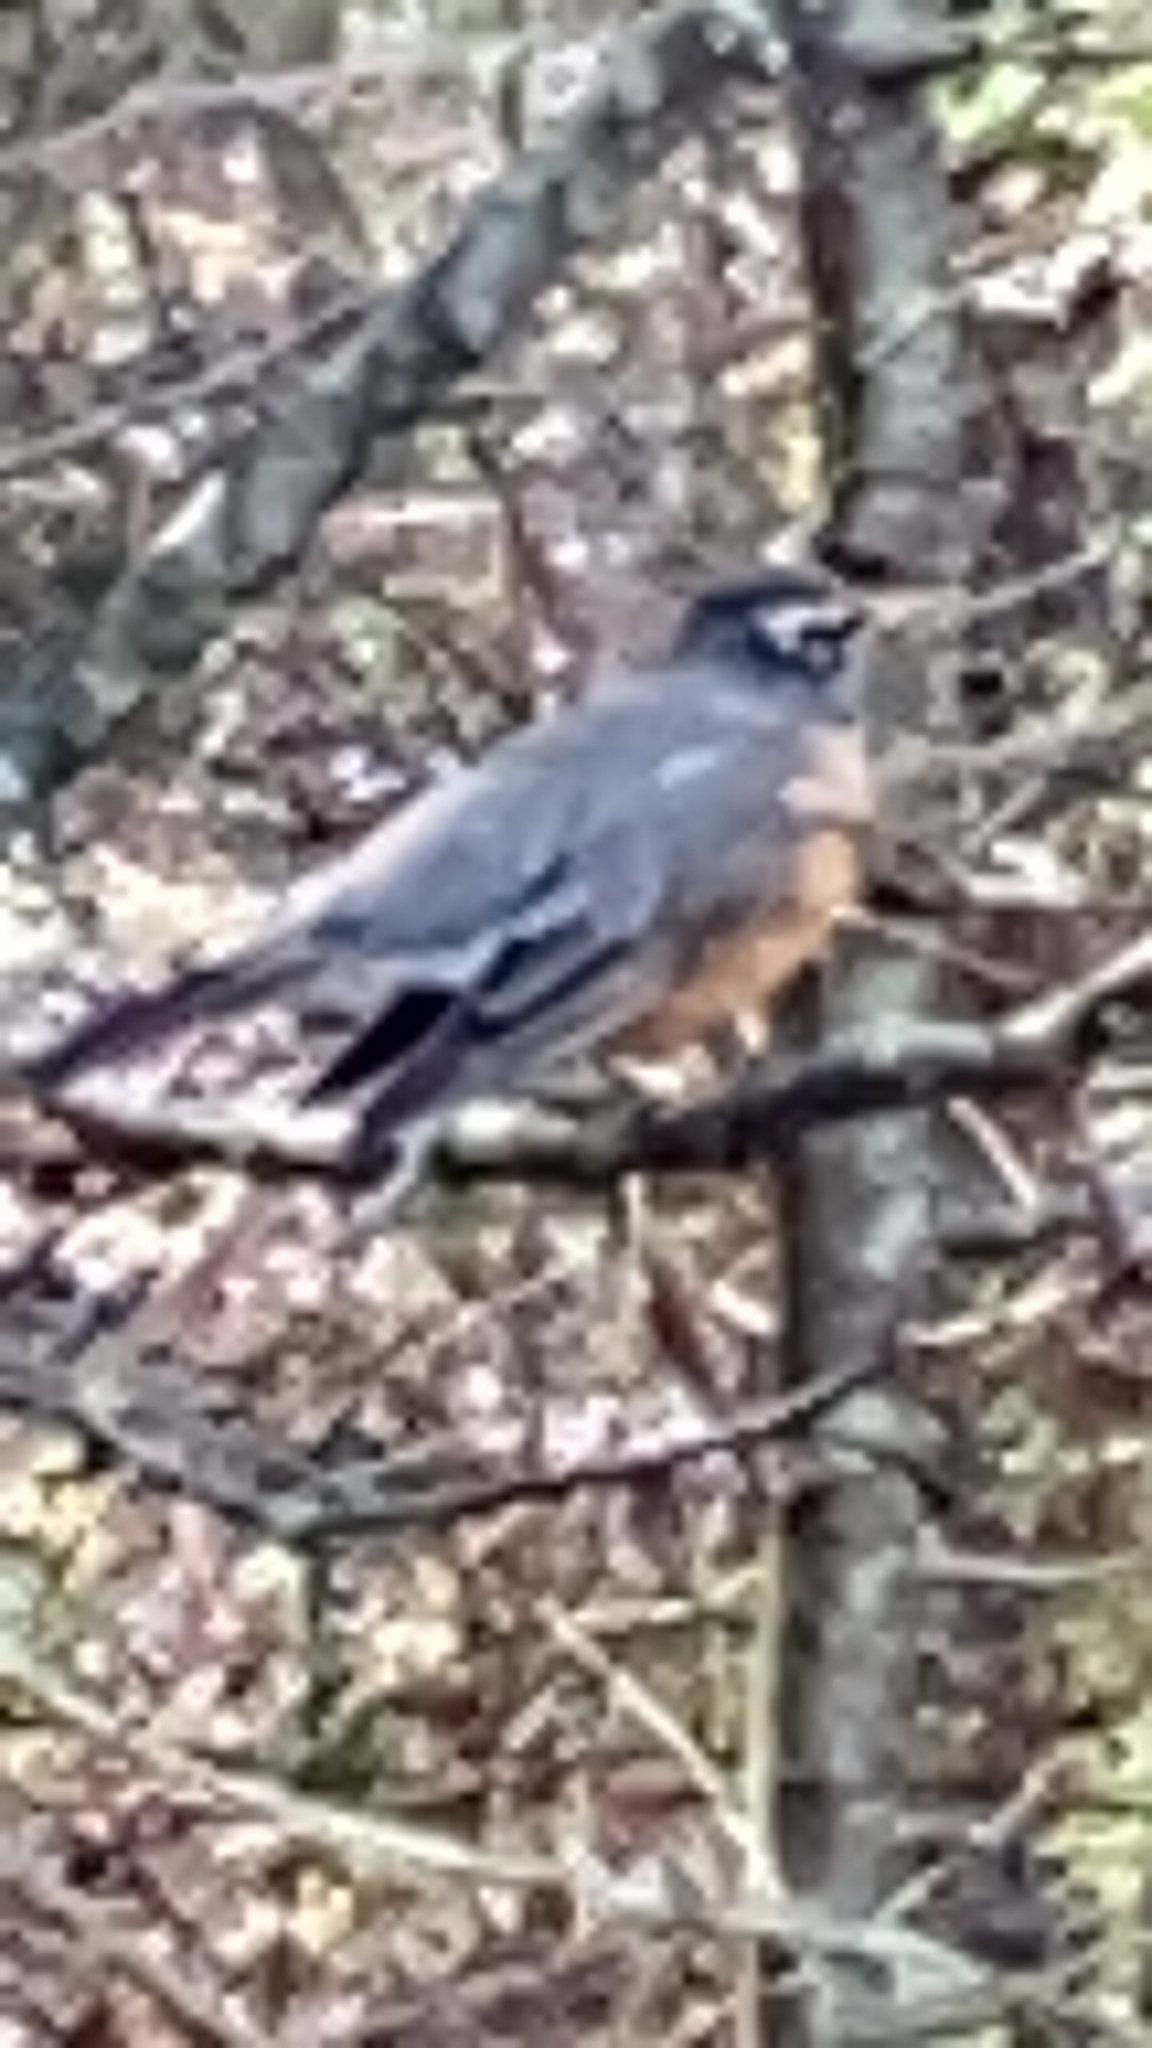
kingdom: Animalia
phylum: Chordata
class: Aves
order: Passeriformes
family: Turdidae
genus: Turdus
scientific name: Turdus migratorius
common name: American robin
